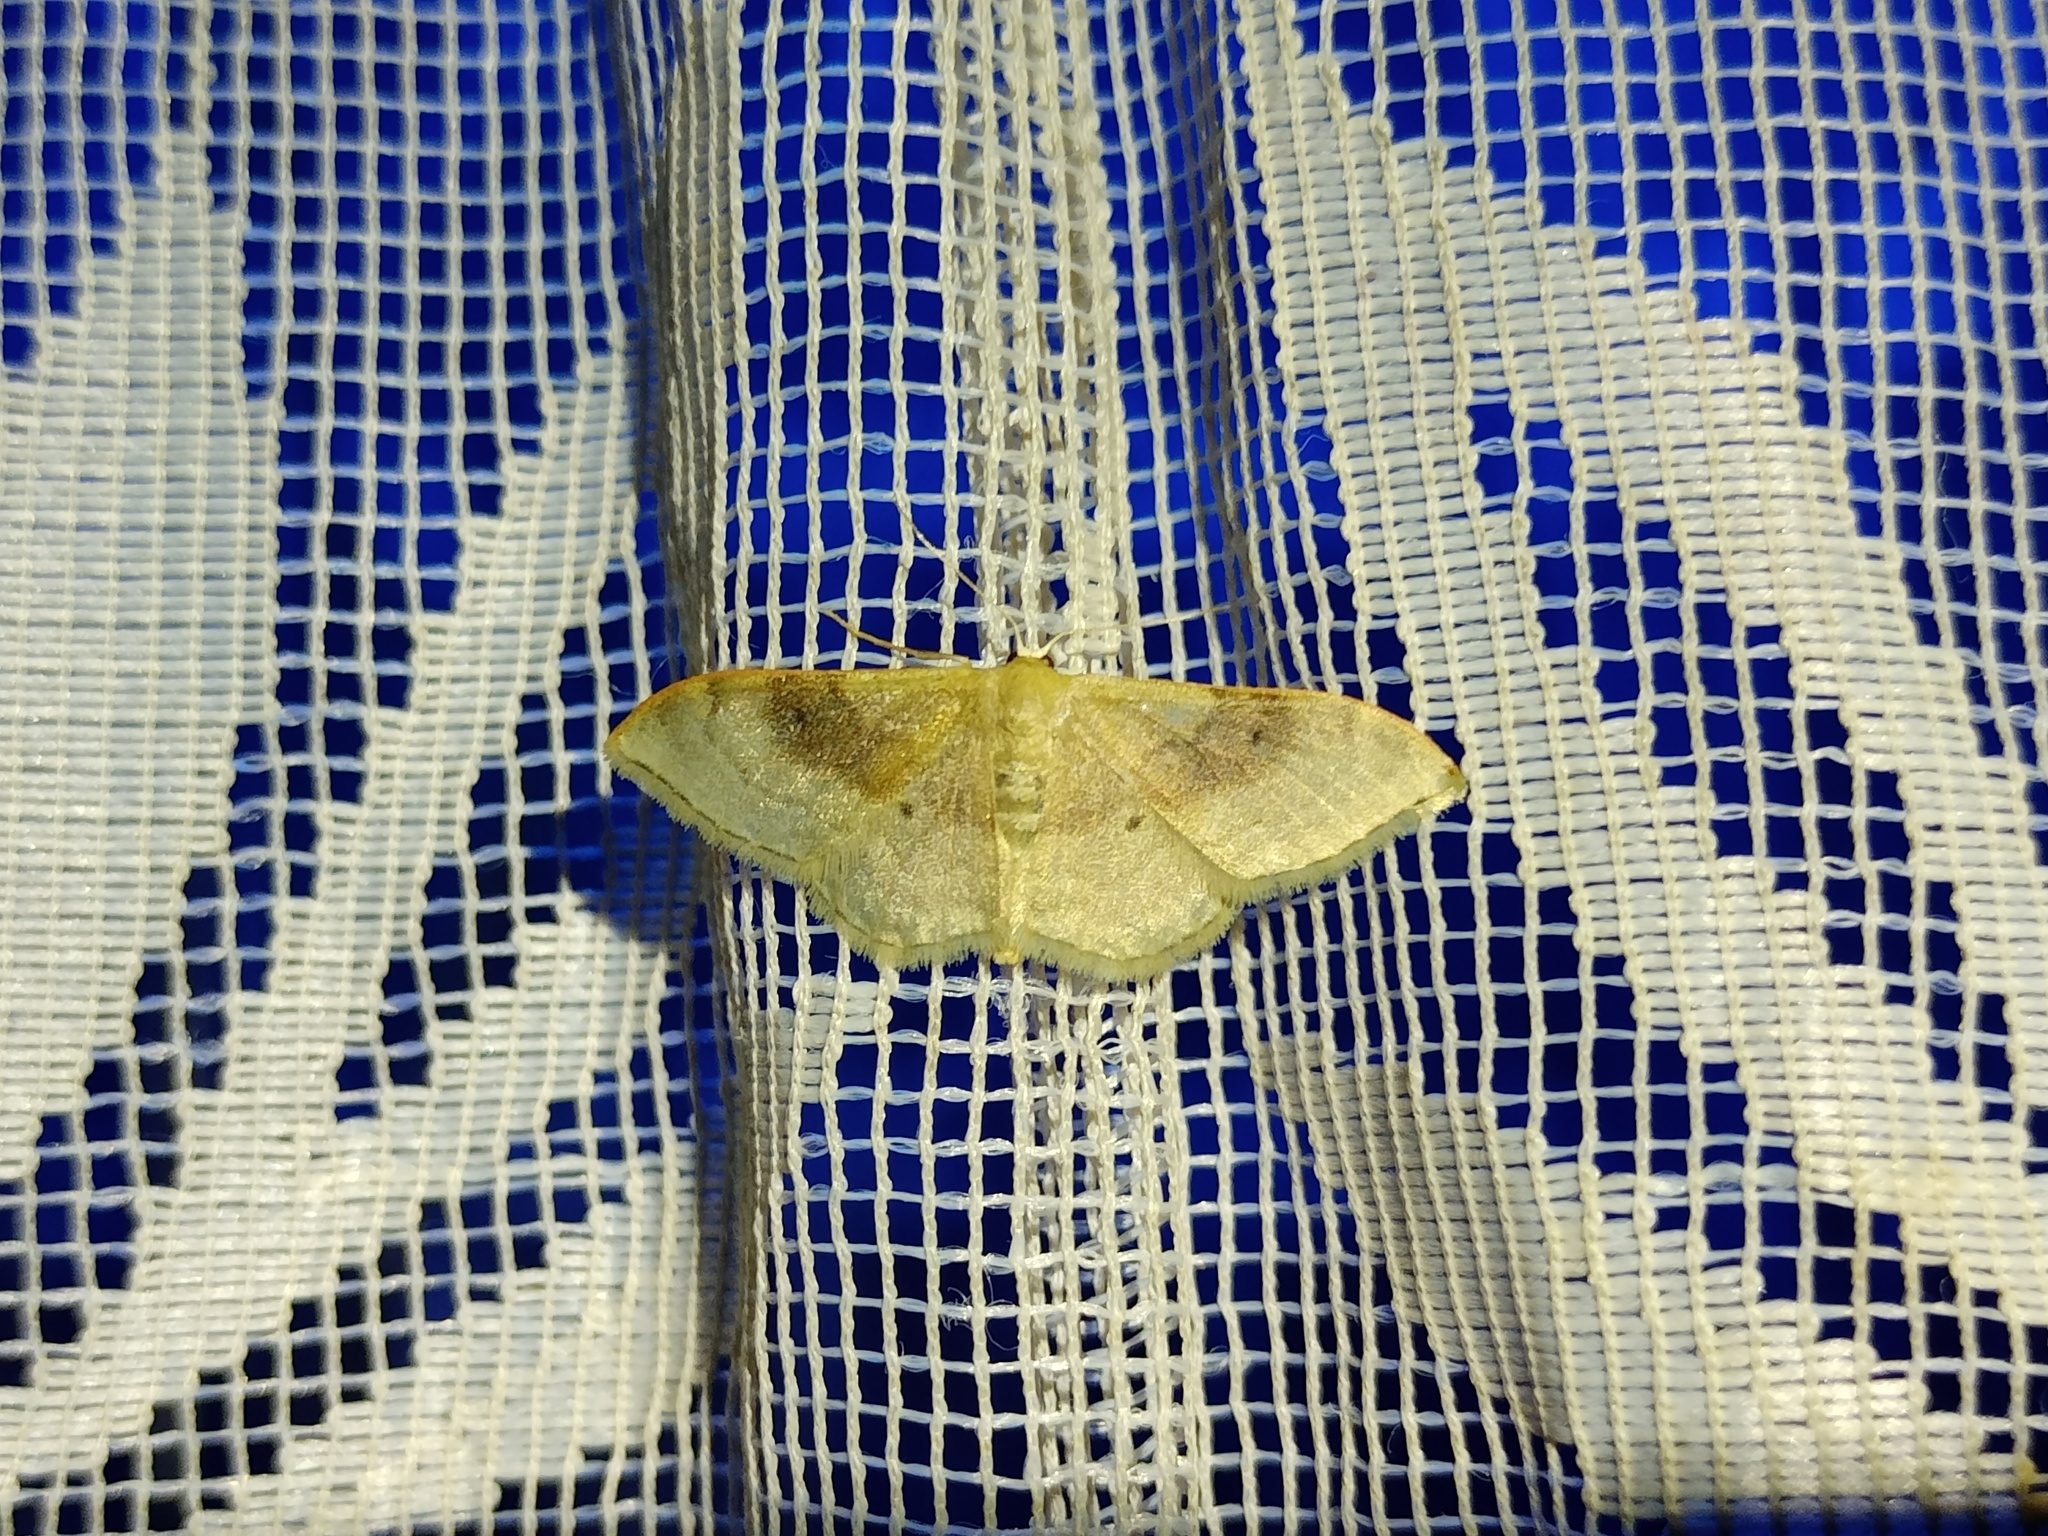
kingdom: Animalia
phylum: Arthropoda
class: Insecta
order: Lepidoptera
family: Geometridae
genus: Idaea
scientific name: Idaea degeneraria
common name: Portland ribbon wave
